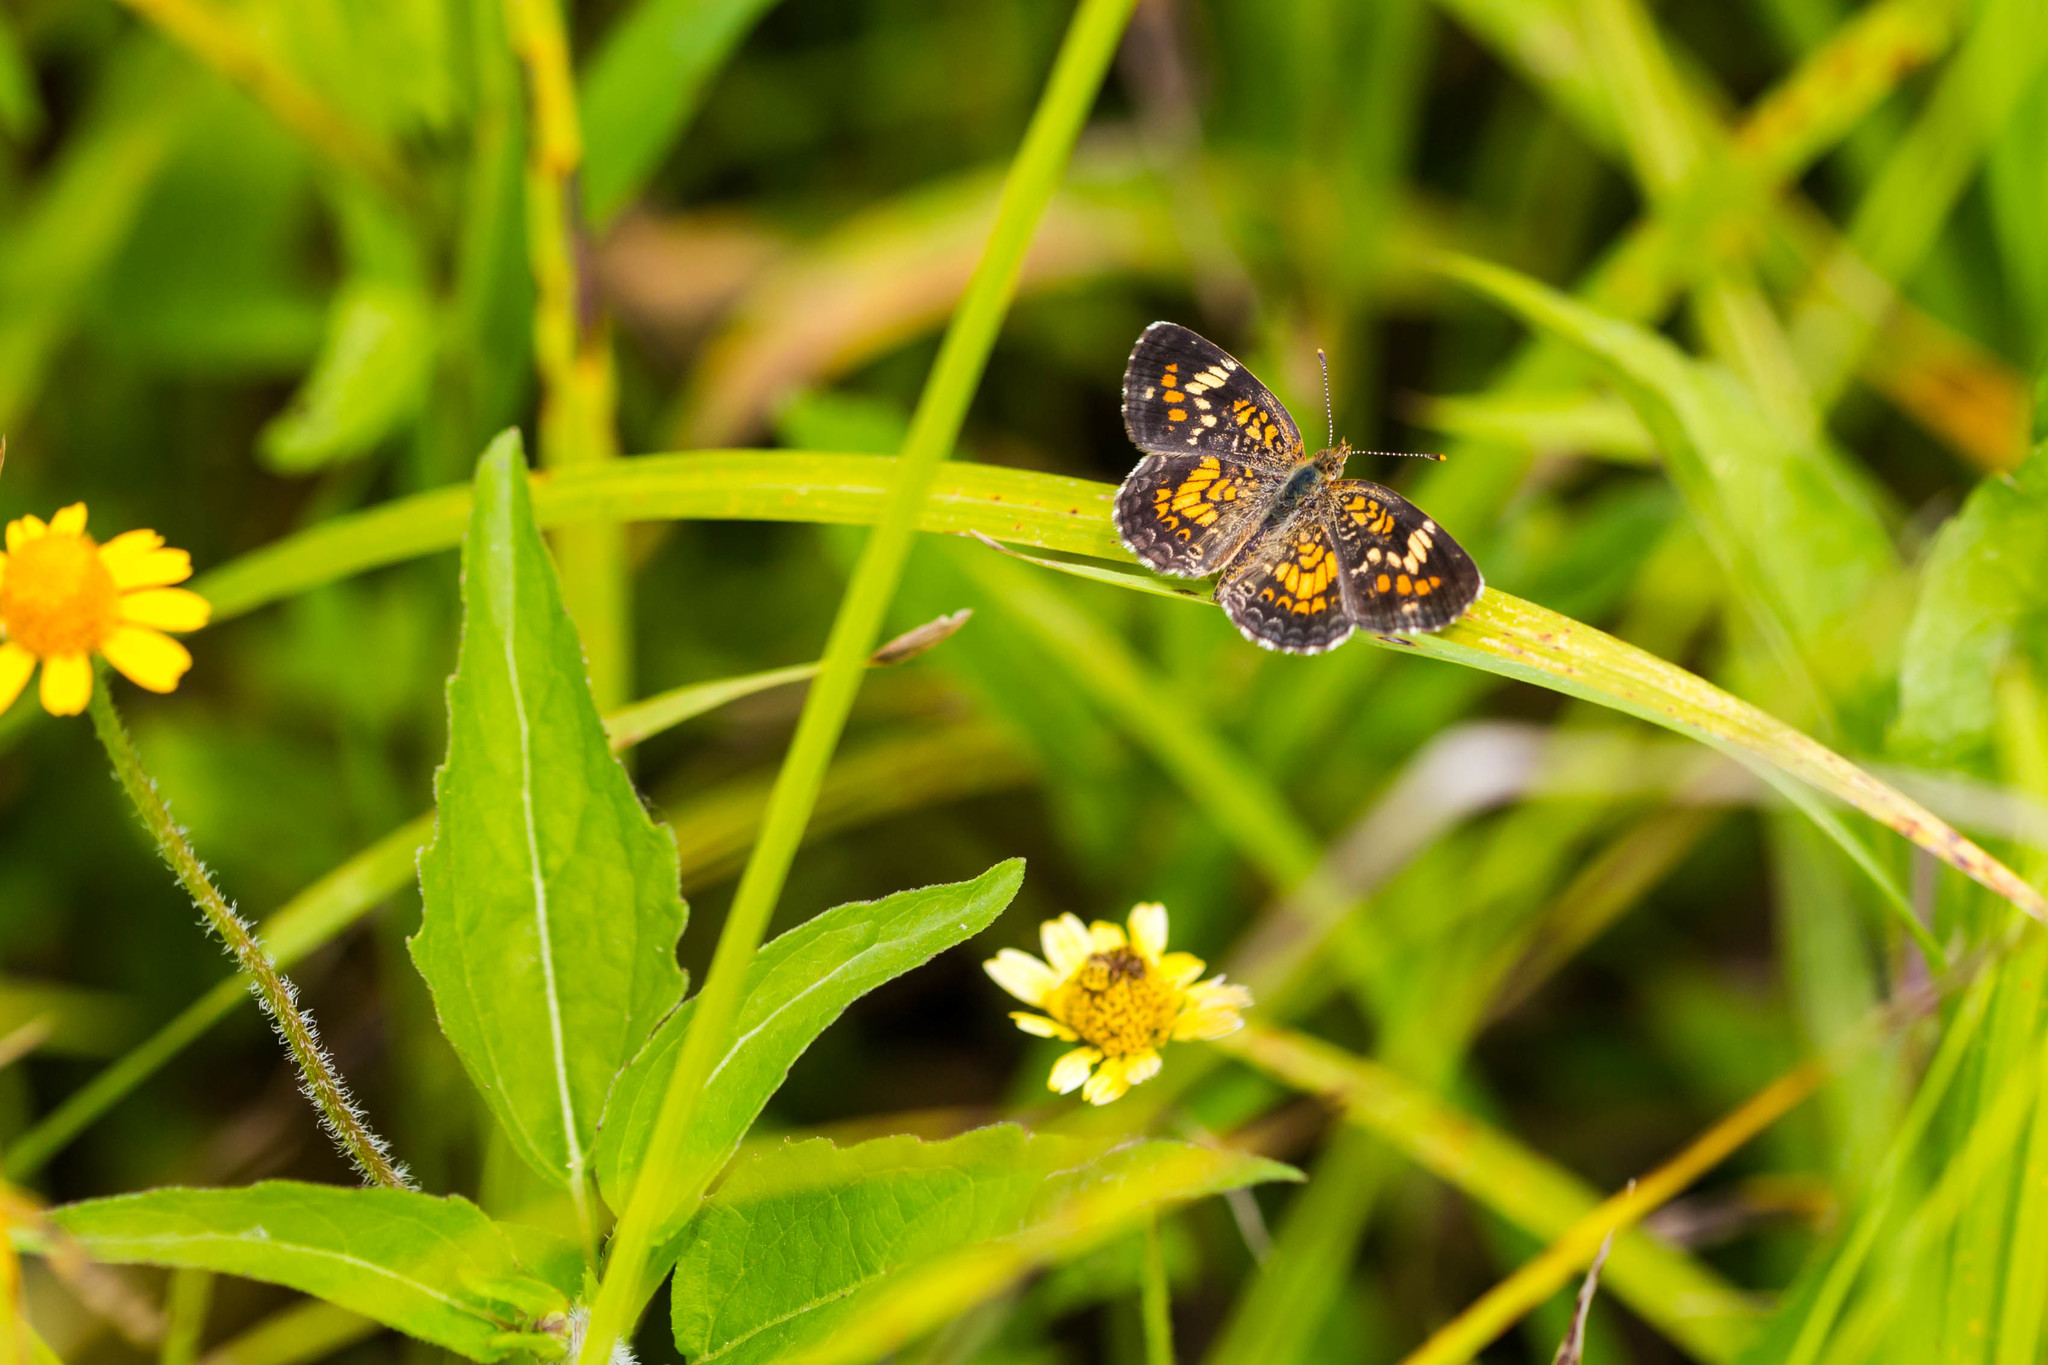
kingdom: Animalia
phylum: Arthropoda
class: Insecta
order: Lepidoptera
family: Nymphalidae
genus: Phyciodes
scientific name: Phyciodes phaon
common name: Phaon crescent
